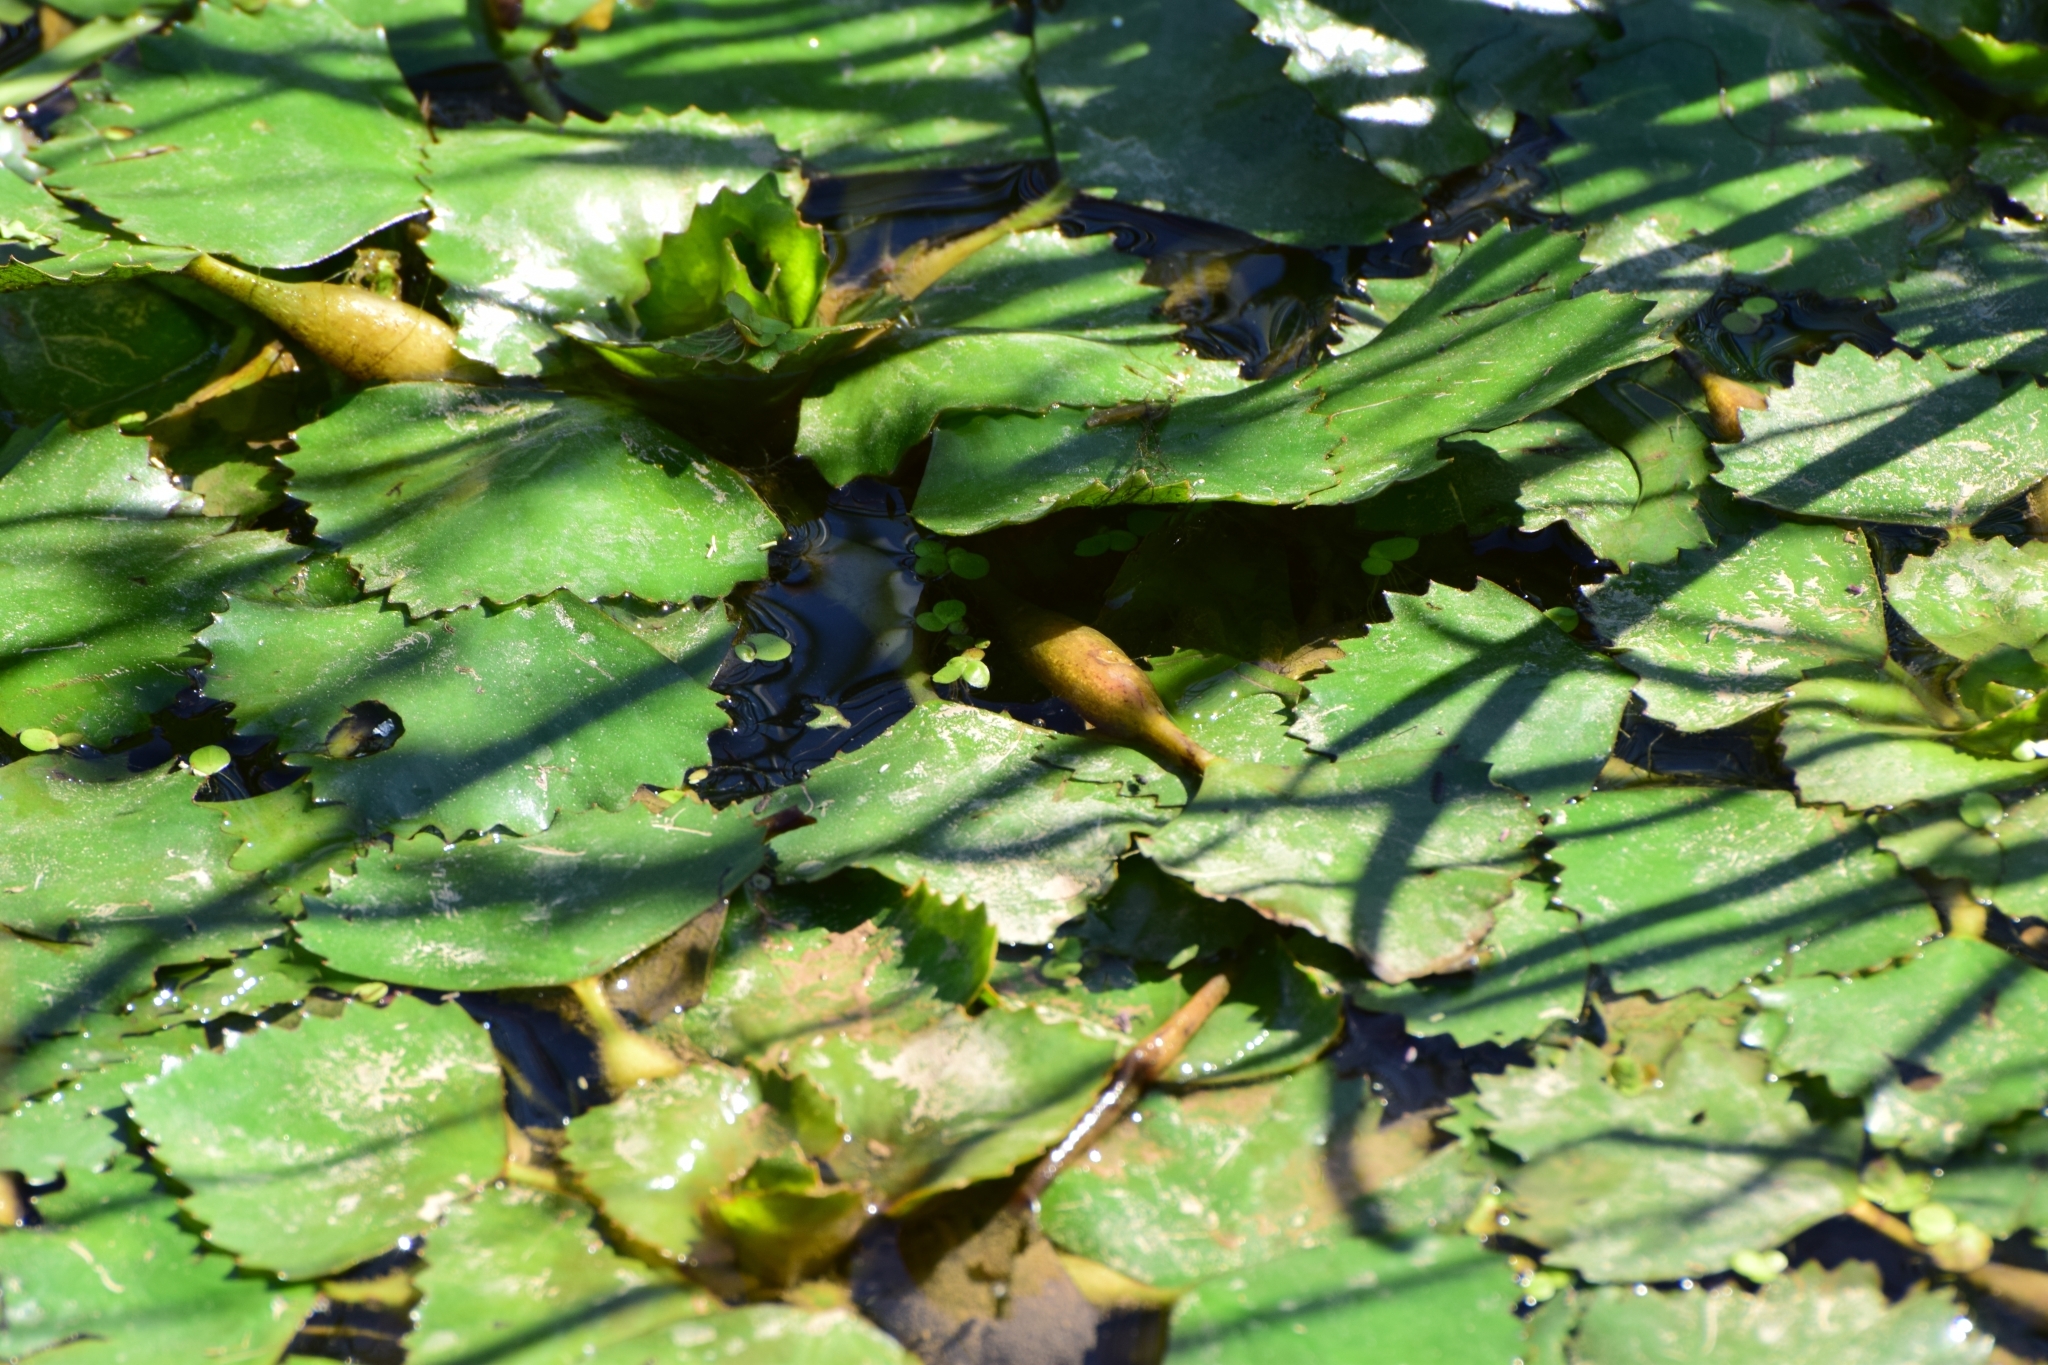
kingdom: Plantae
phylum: Tracheophyta
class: Magnoliopsida
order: Myrtales
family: Lythraceae
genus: Trapa
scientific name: Trapa natans
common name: Water chestnut
